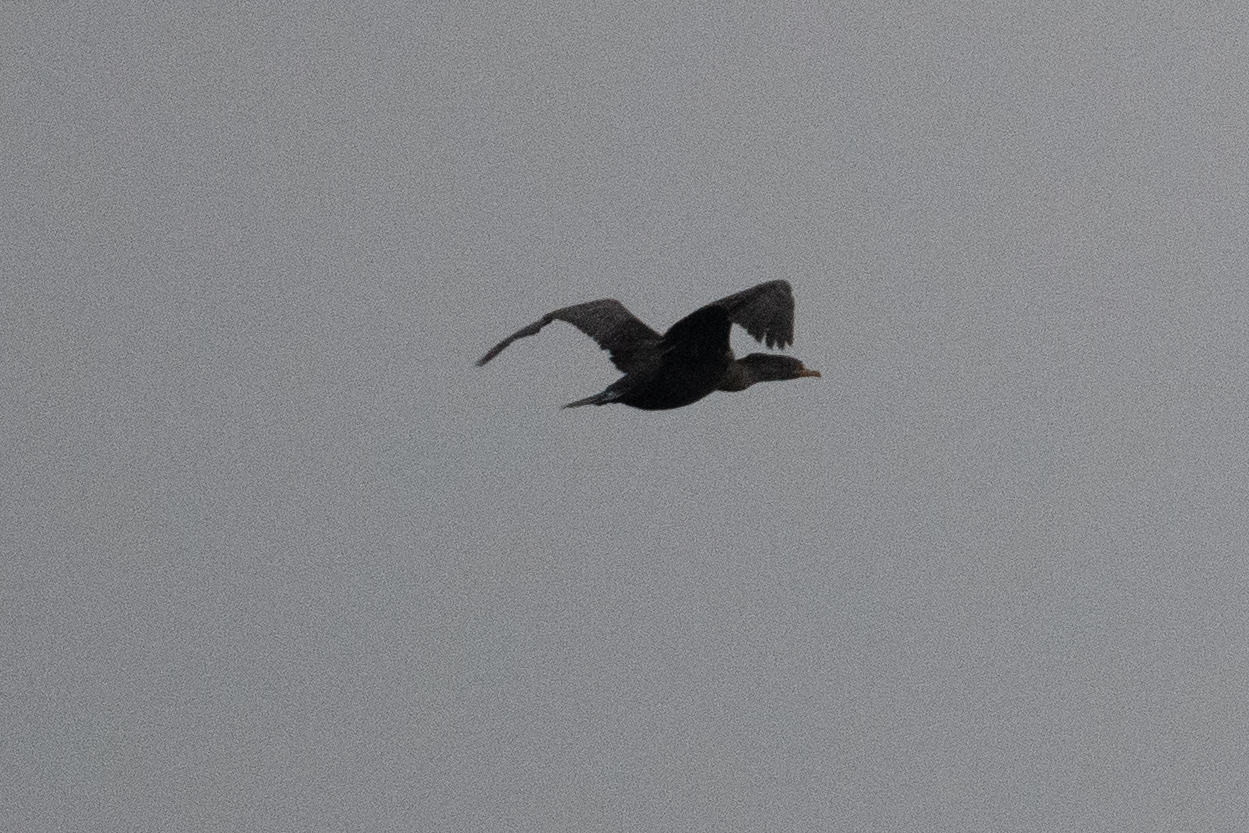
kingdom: Animalia
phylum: Chordata
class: Aves
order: Suliformes
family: Phalacrocoracidae
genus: Phalacrocorax
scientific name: Phalacrocorax auritus
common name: Double-crested cormorant
